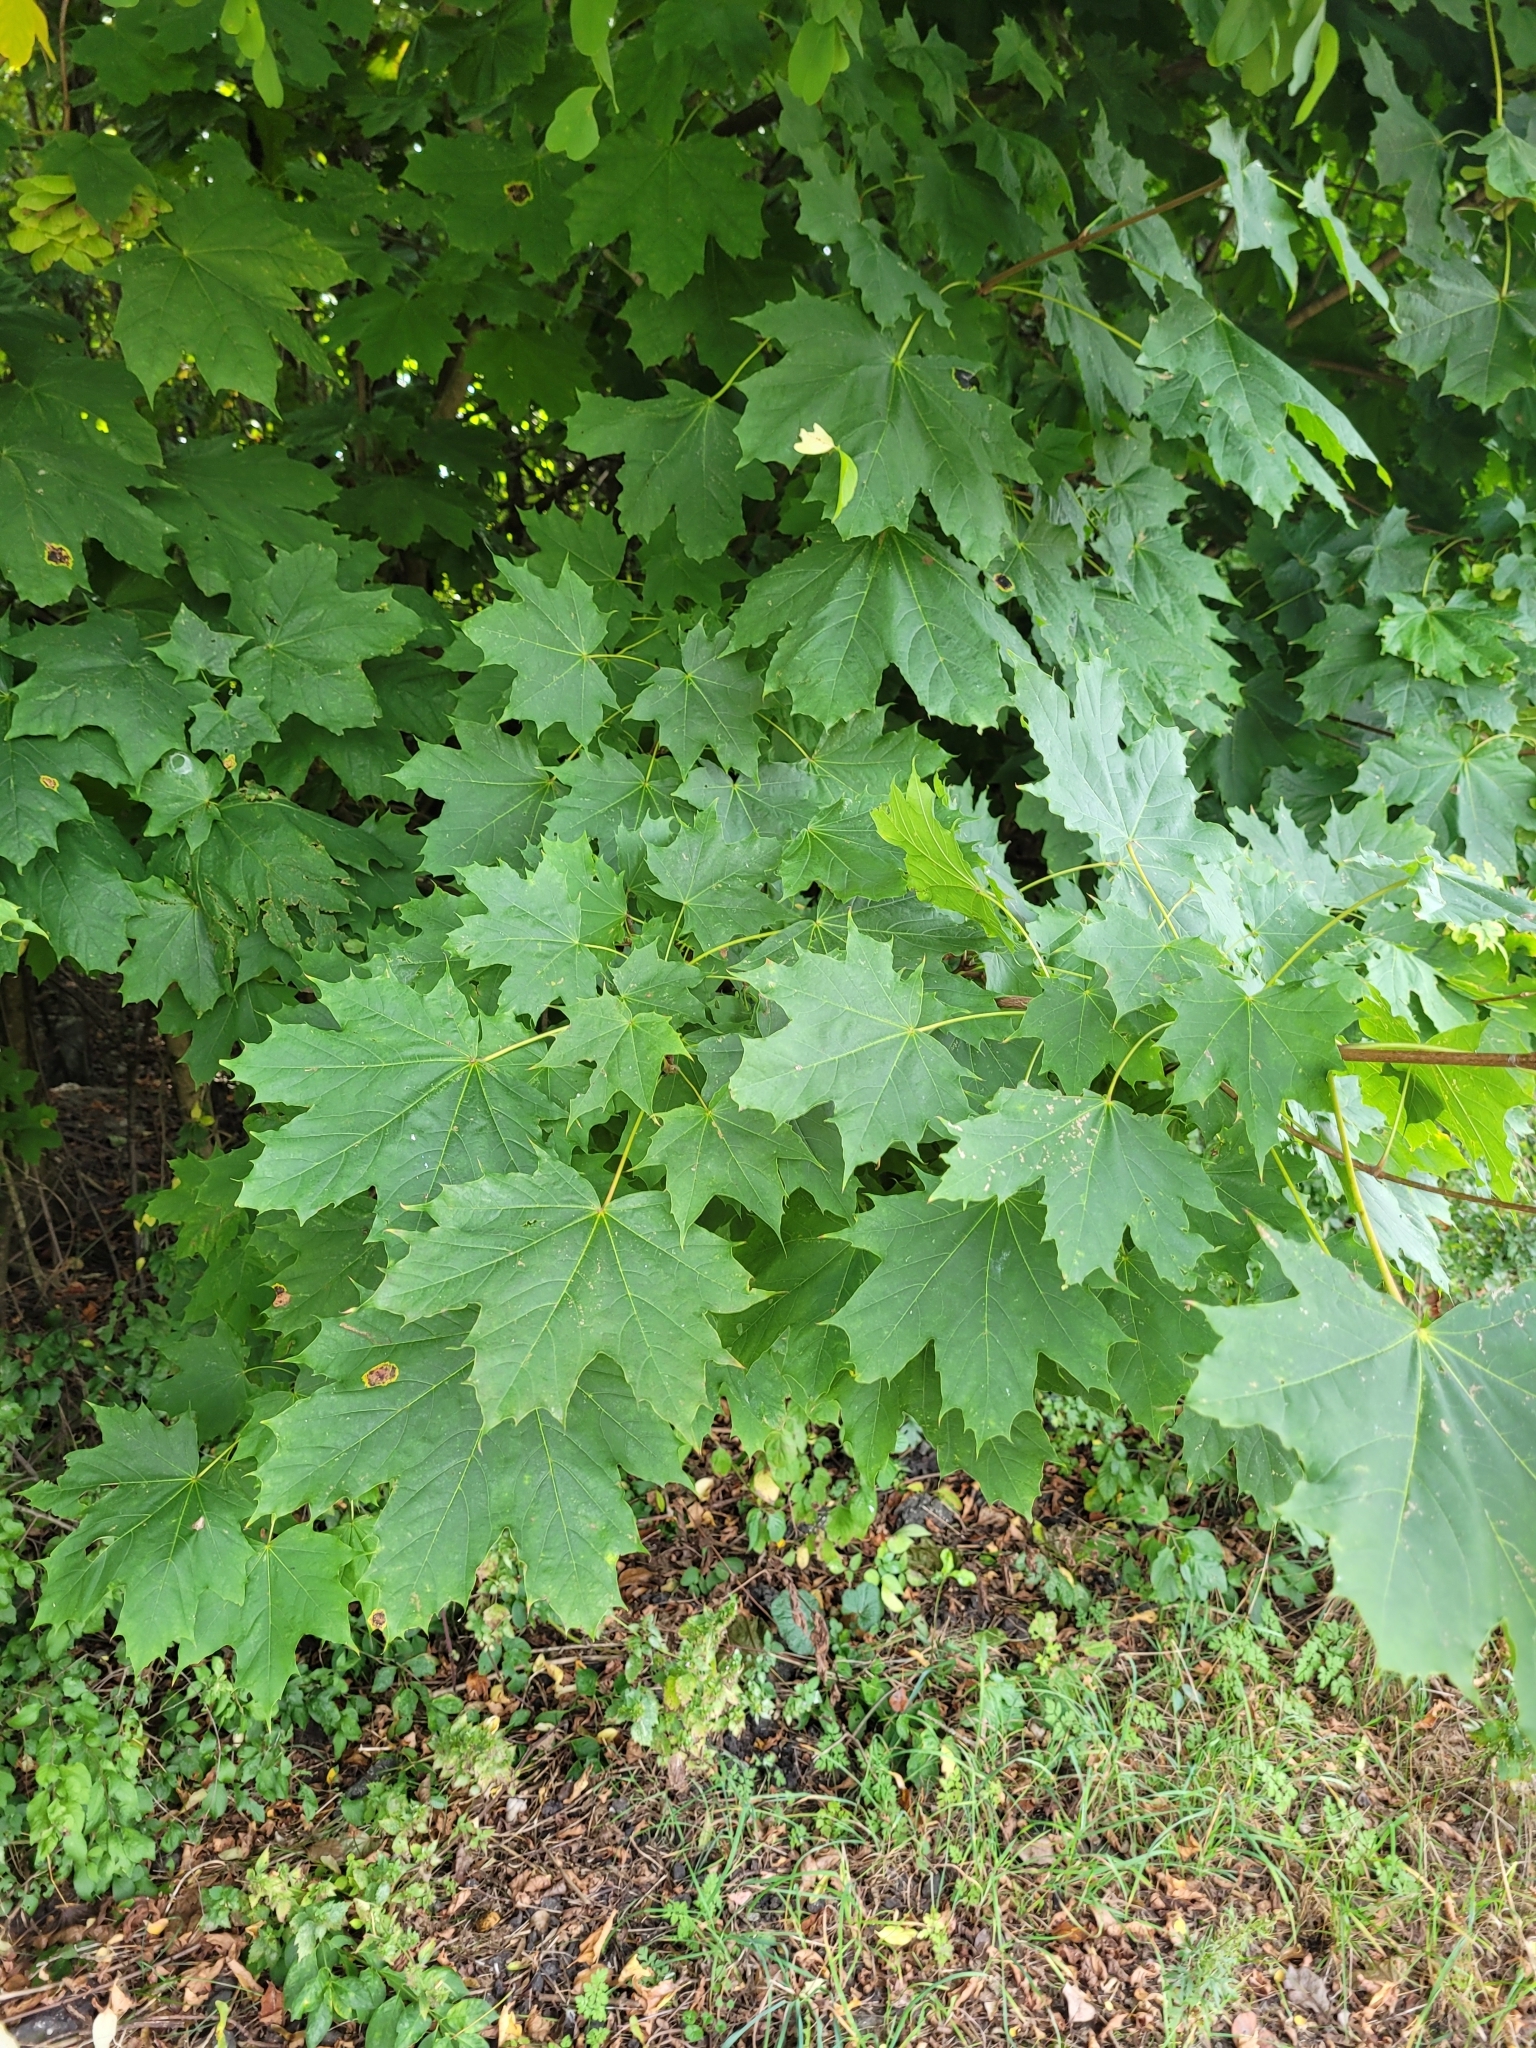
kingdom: Plantae
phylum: Tracheophyta
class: Magnoliopsida
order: Sapindales
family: Sapindaceae
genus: Acer
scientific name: Acer platanoides
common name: Norway maple
